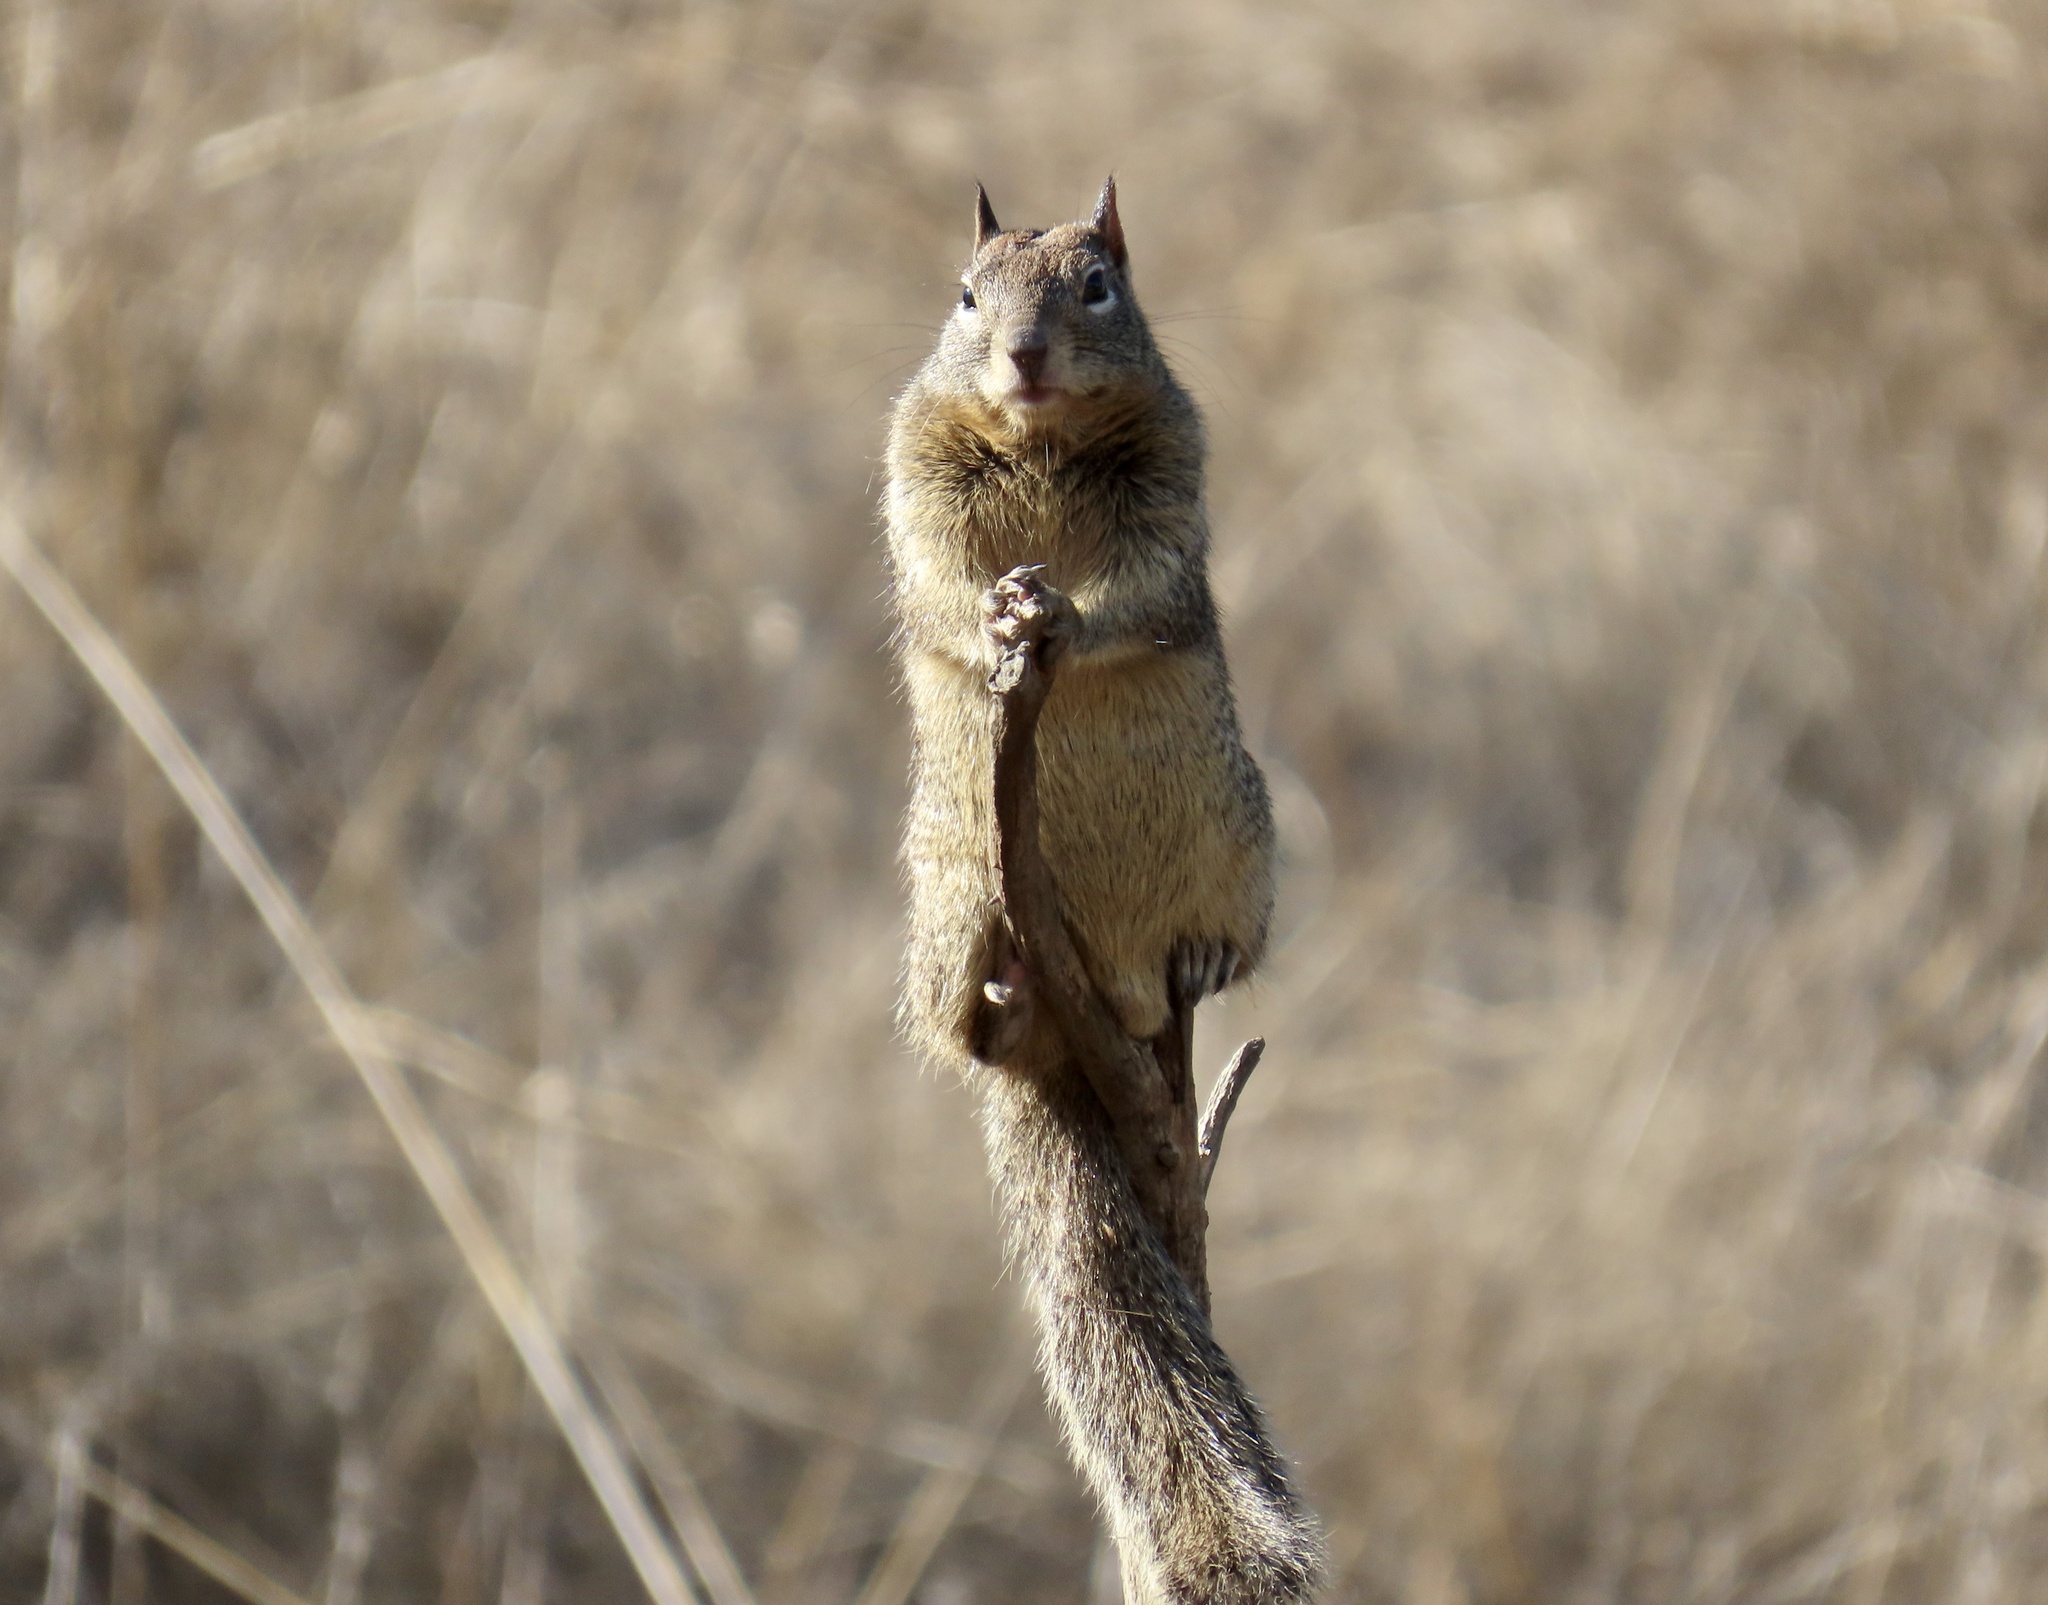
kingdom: Animalia
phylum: Chordata
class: Mammalia
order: Rodentia
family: Sciuridae
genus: Otospermophilus
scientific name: Otospermophilus beecheyi
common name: California ground squirrel
